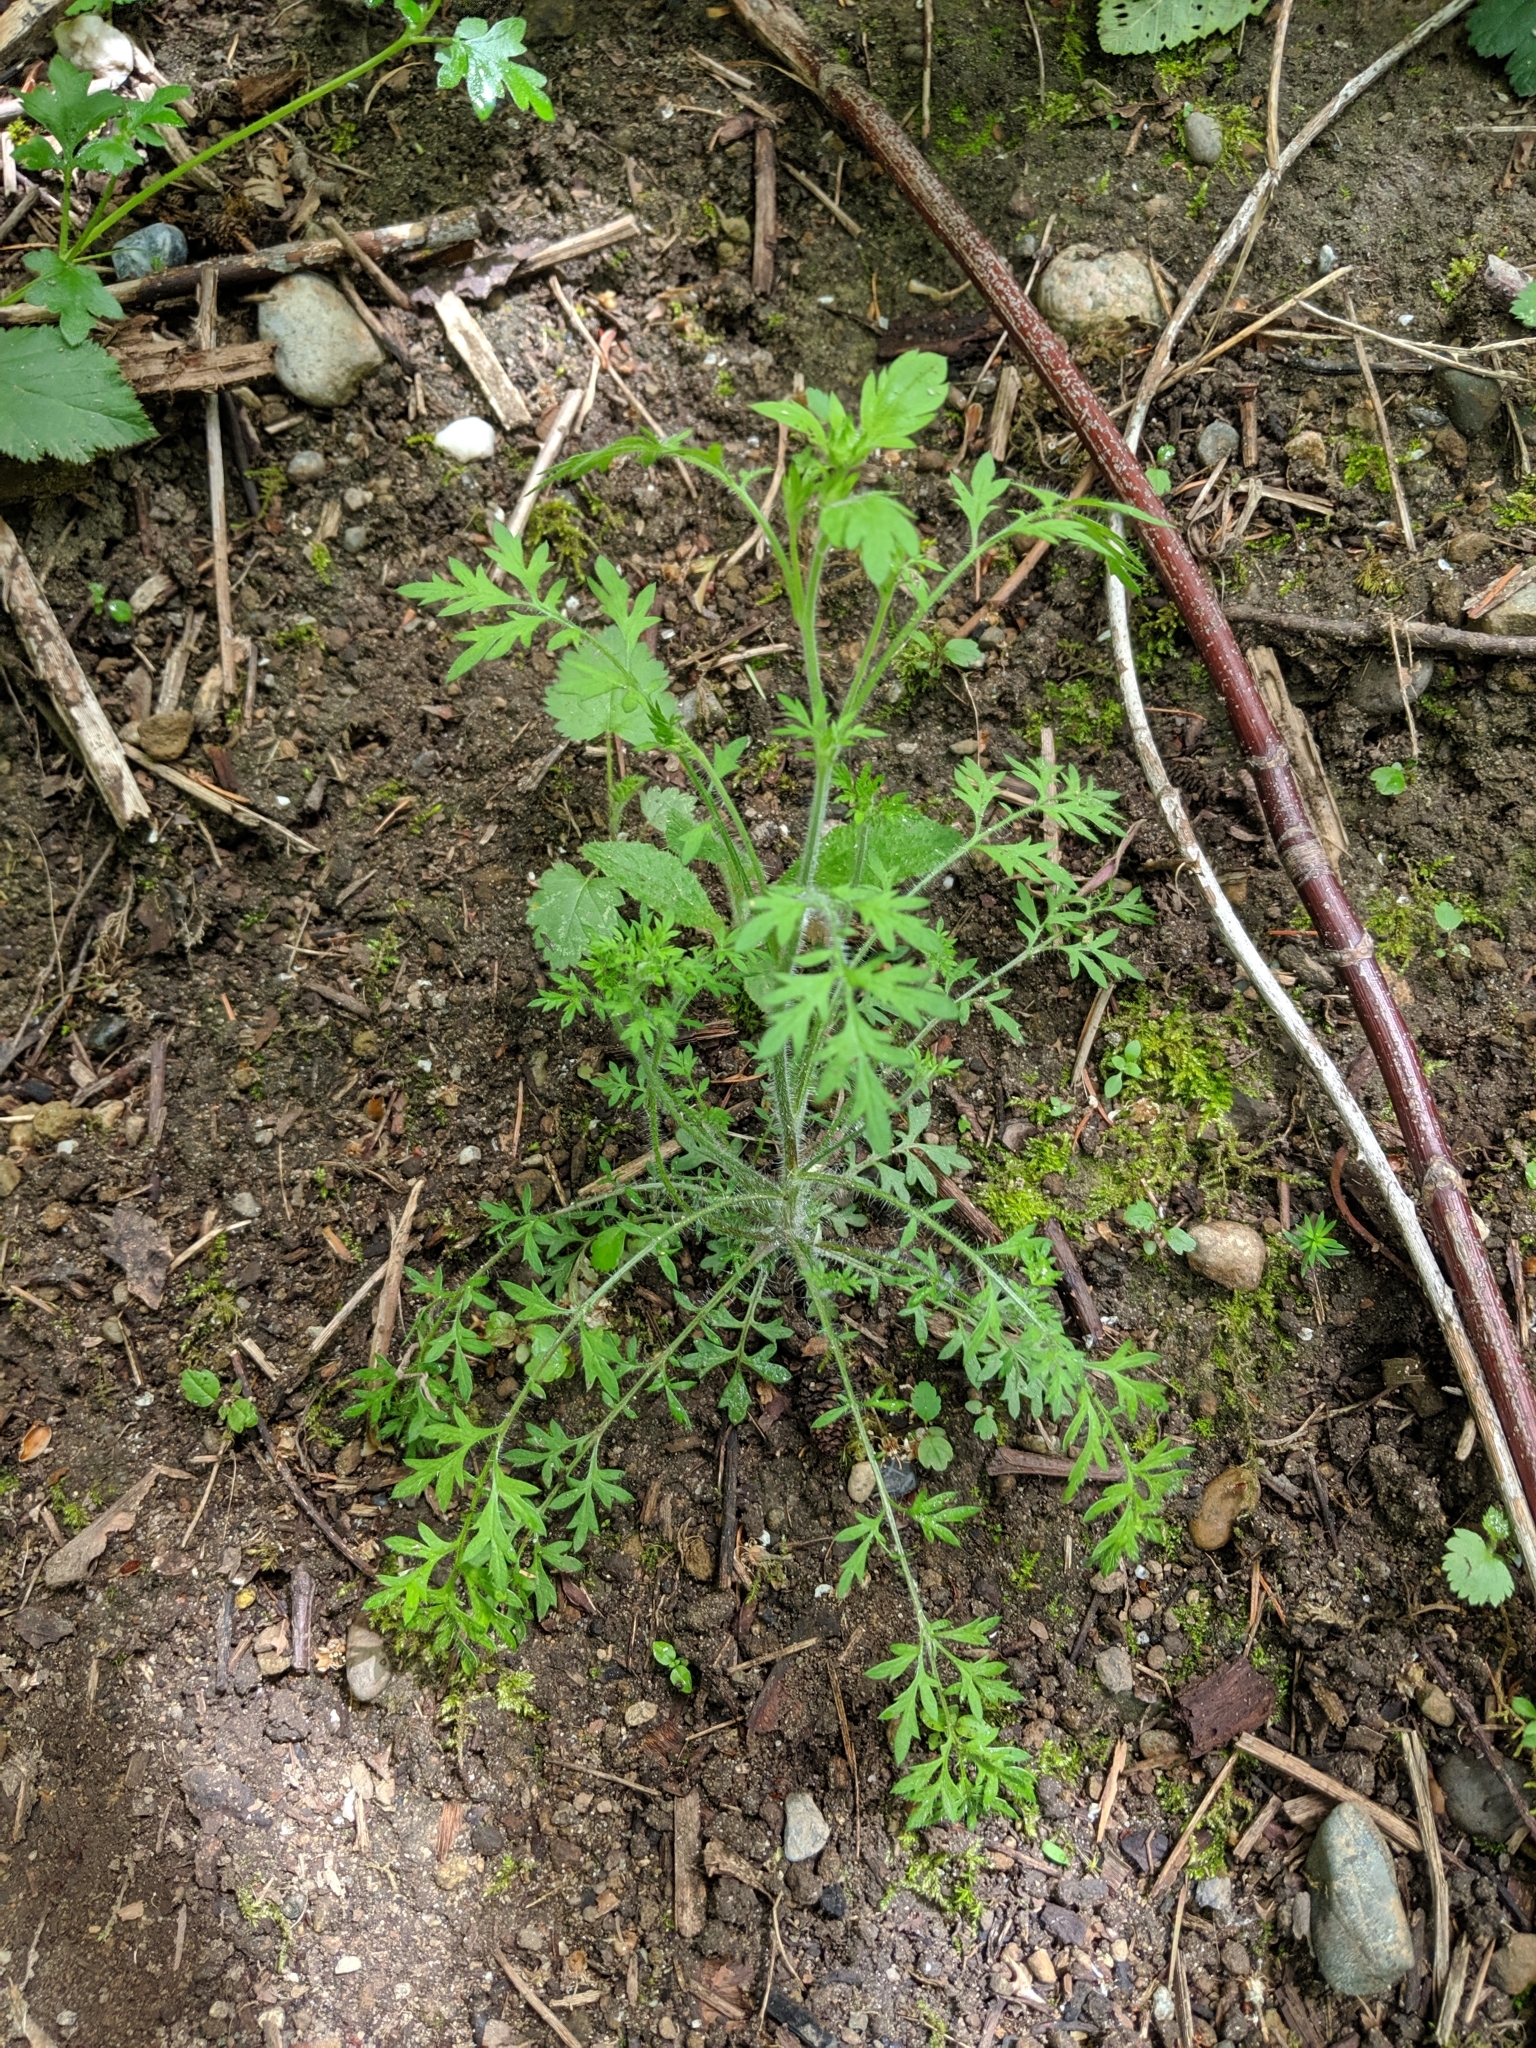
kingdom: Plantae
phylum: Tracheophyta
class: Magnoliopsida
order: Ericales
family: Polemoniaceae
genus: Collomia
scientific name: Collomia heterophylla
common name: Variable-leaved collomia
